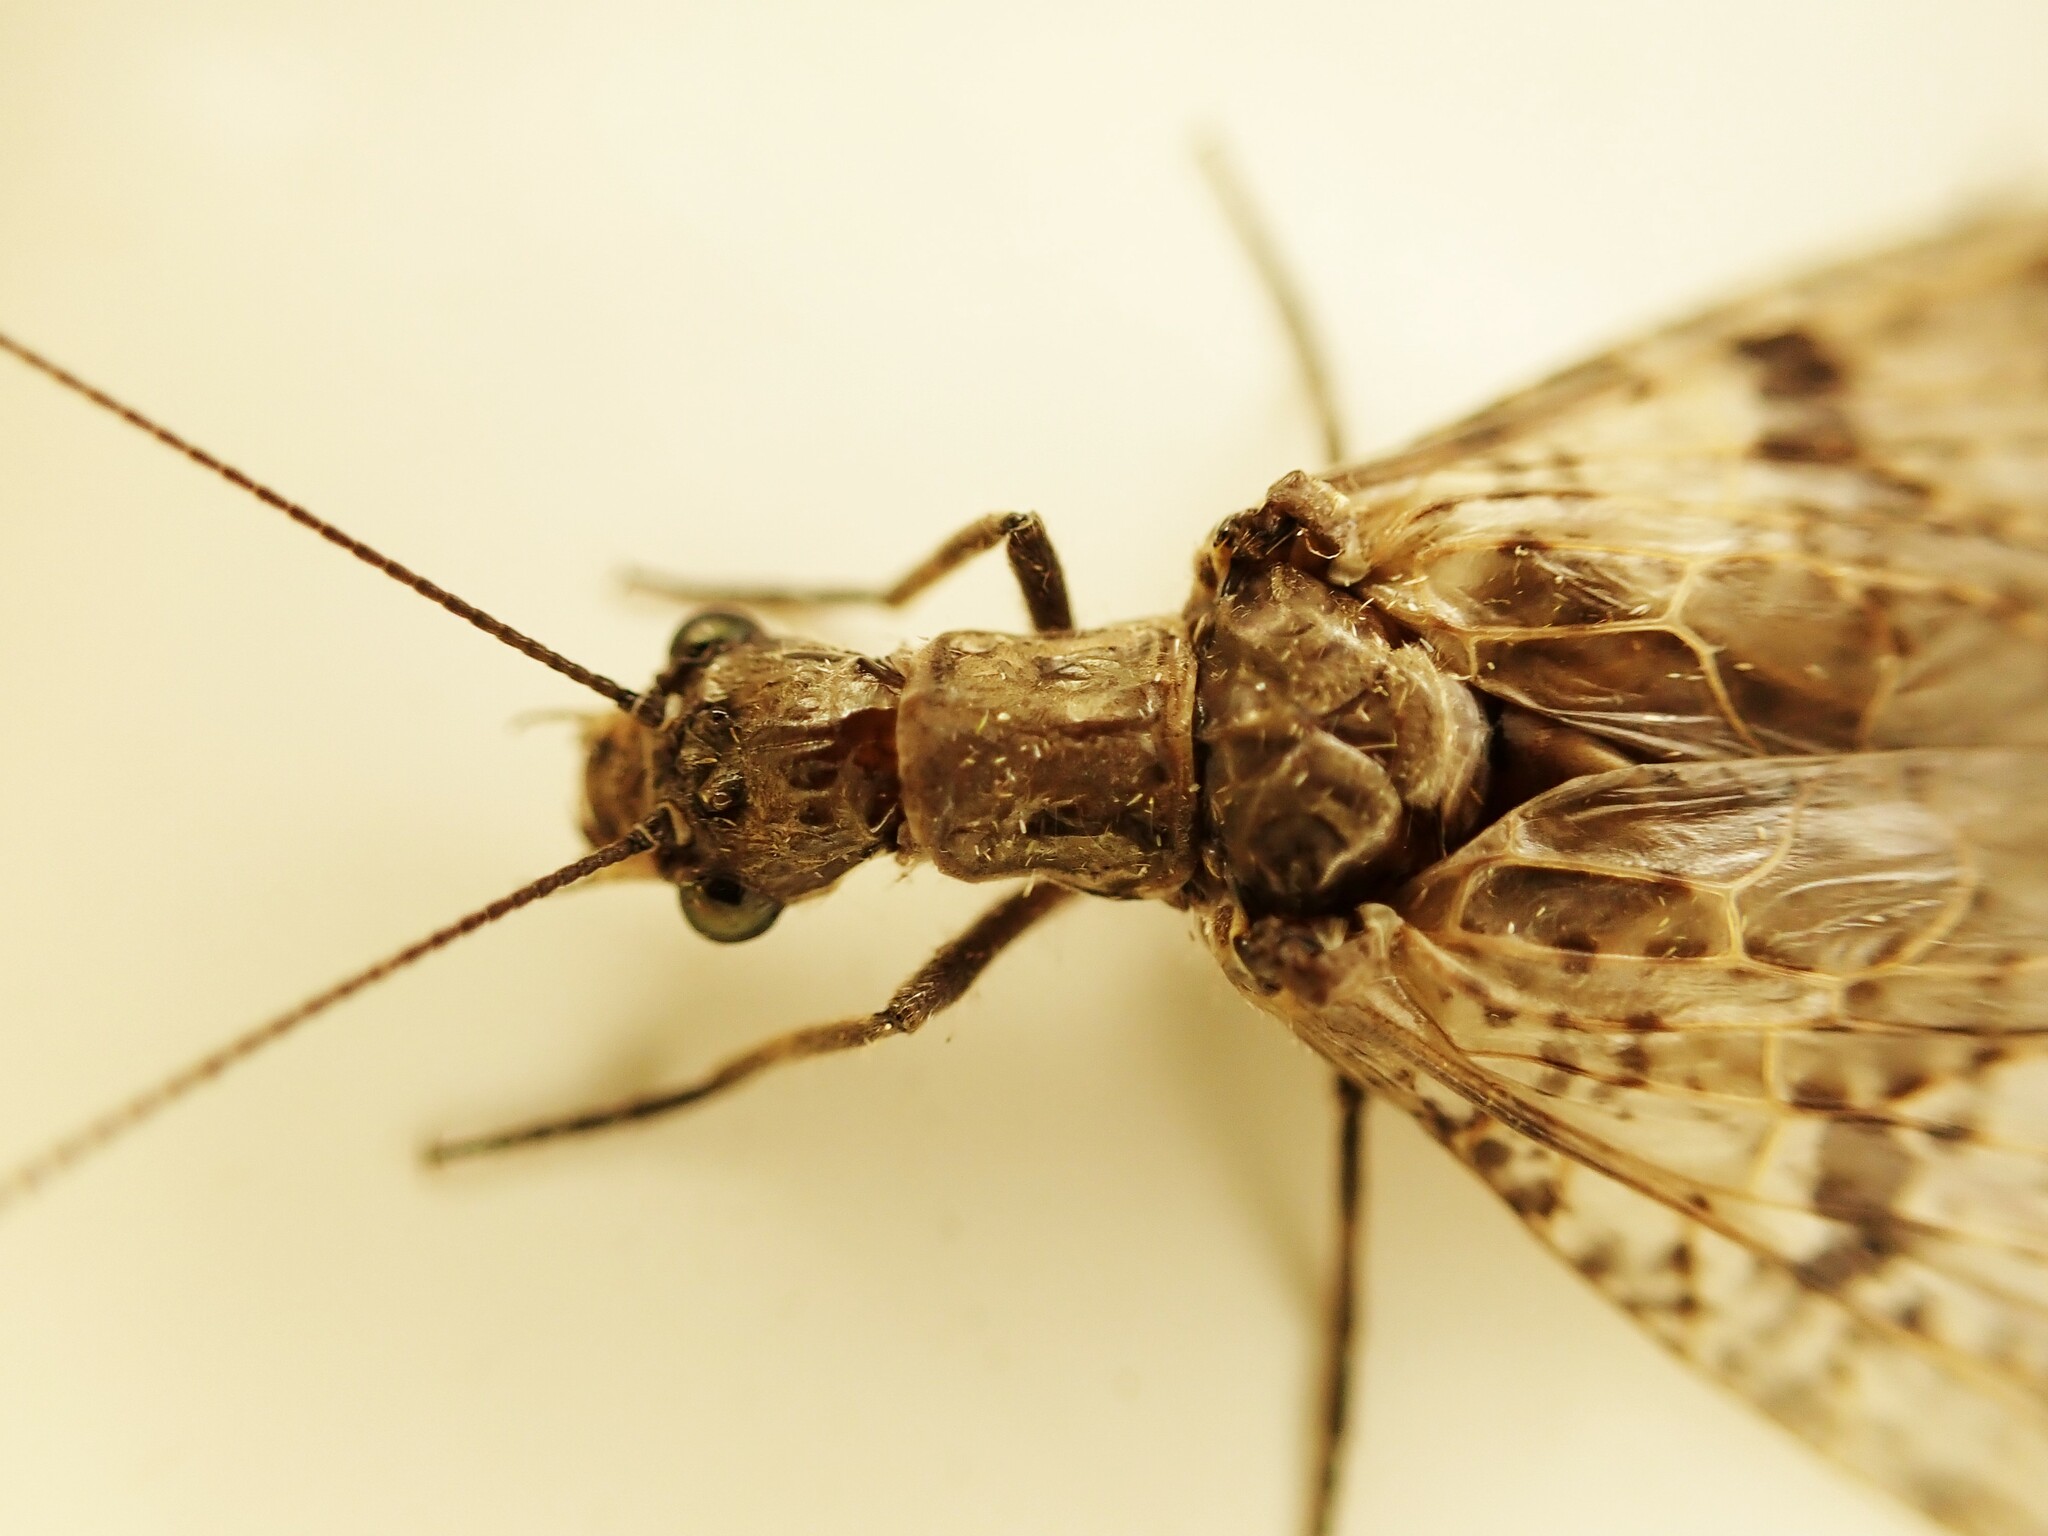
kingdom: Animalia
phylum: Arthropoda
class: Insecta
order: Megaloptera
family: Corydalidae
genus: Archichauliodes
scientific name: Archichauliodes diversus
